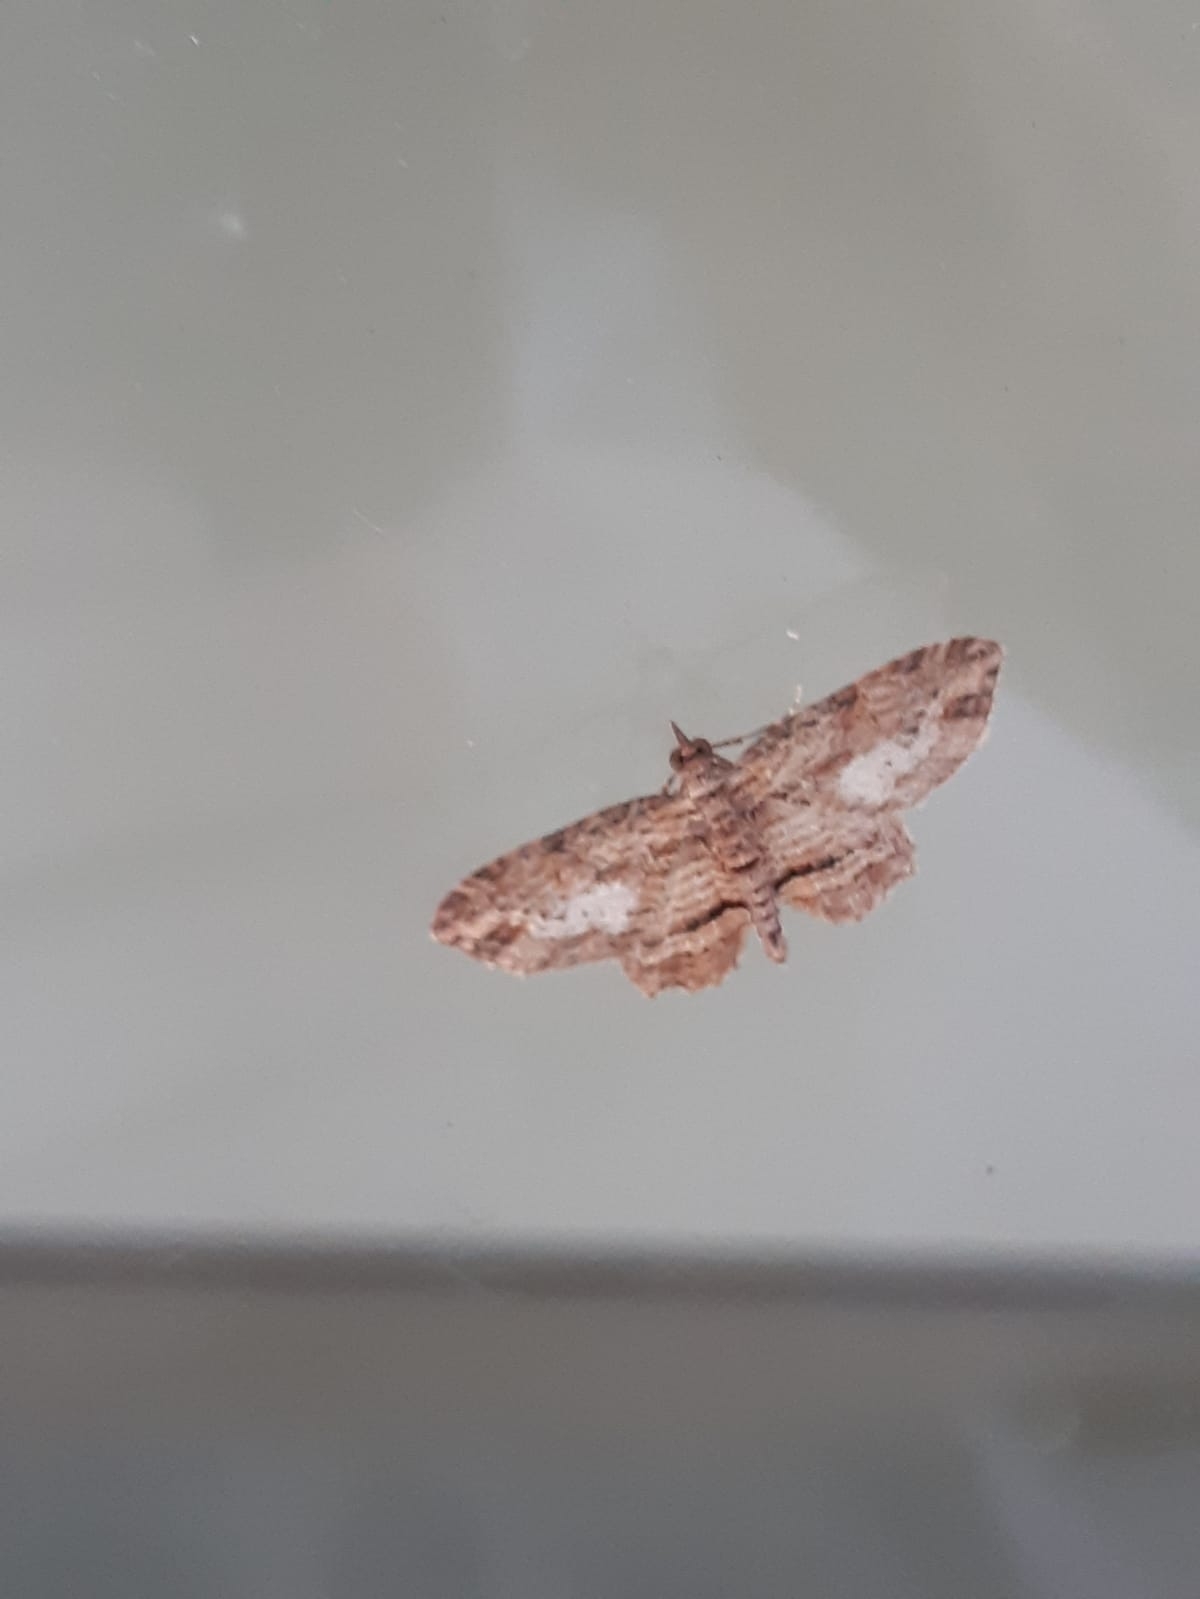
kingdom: Animalia
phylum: Arthropoda
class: Insecta
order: Lepidoptera
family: Geometridae
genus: Chloroclystis
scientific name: Chloroclystis filata
